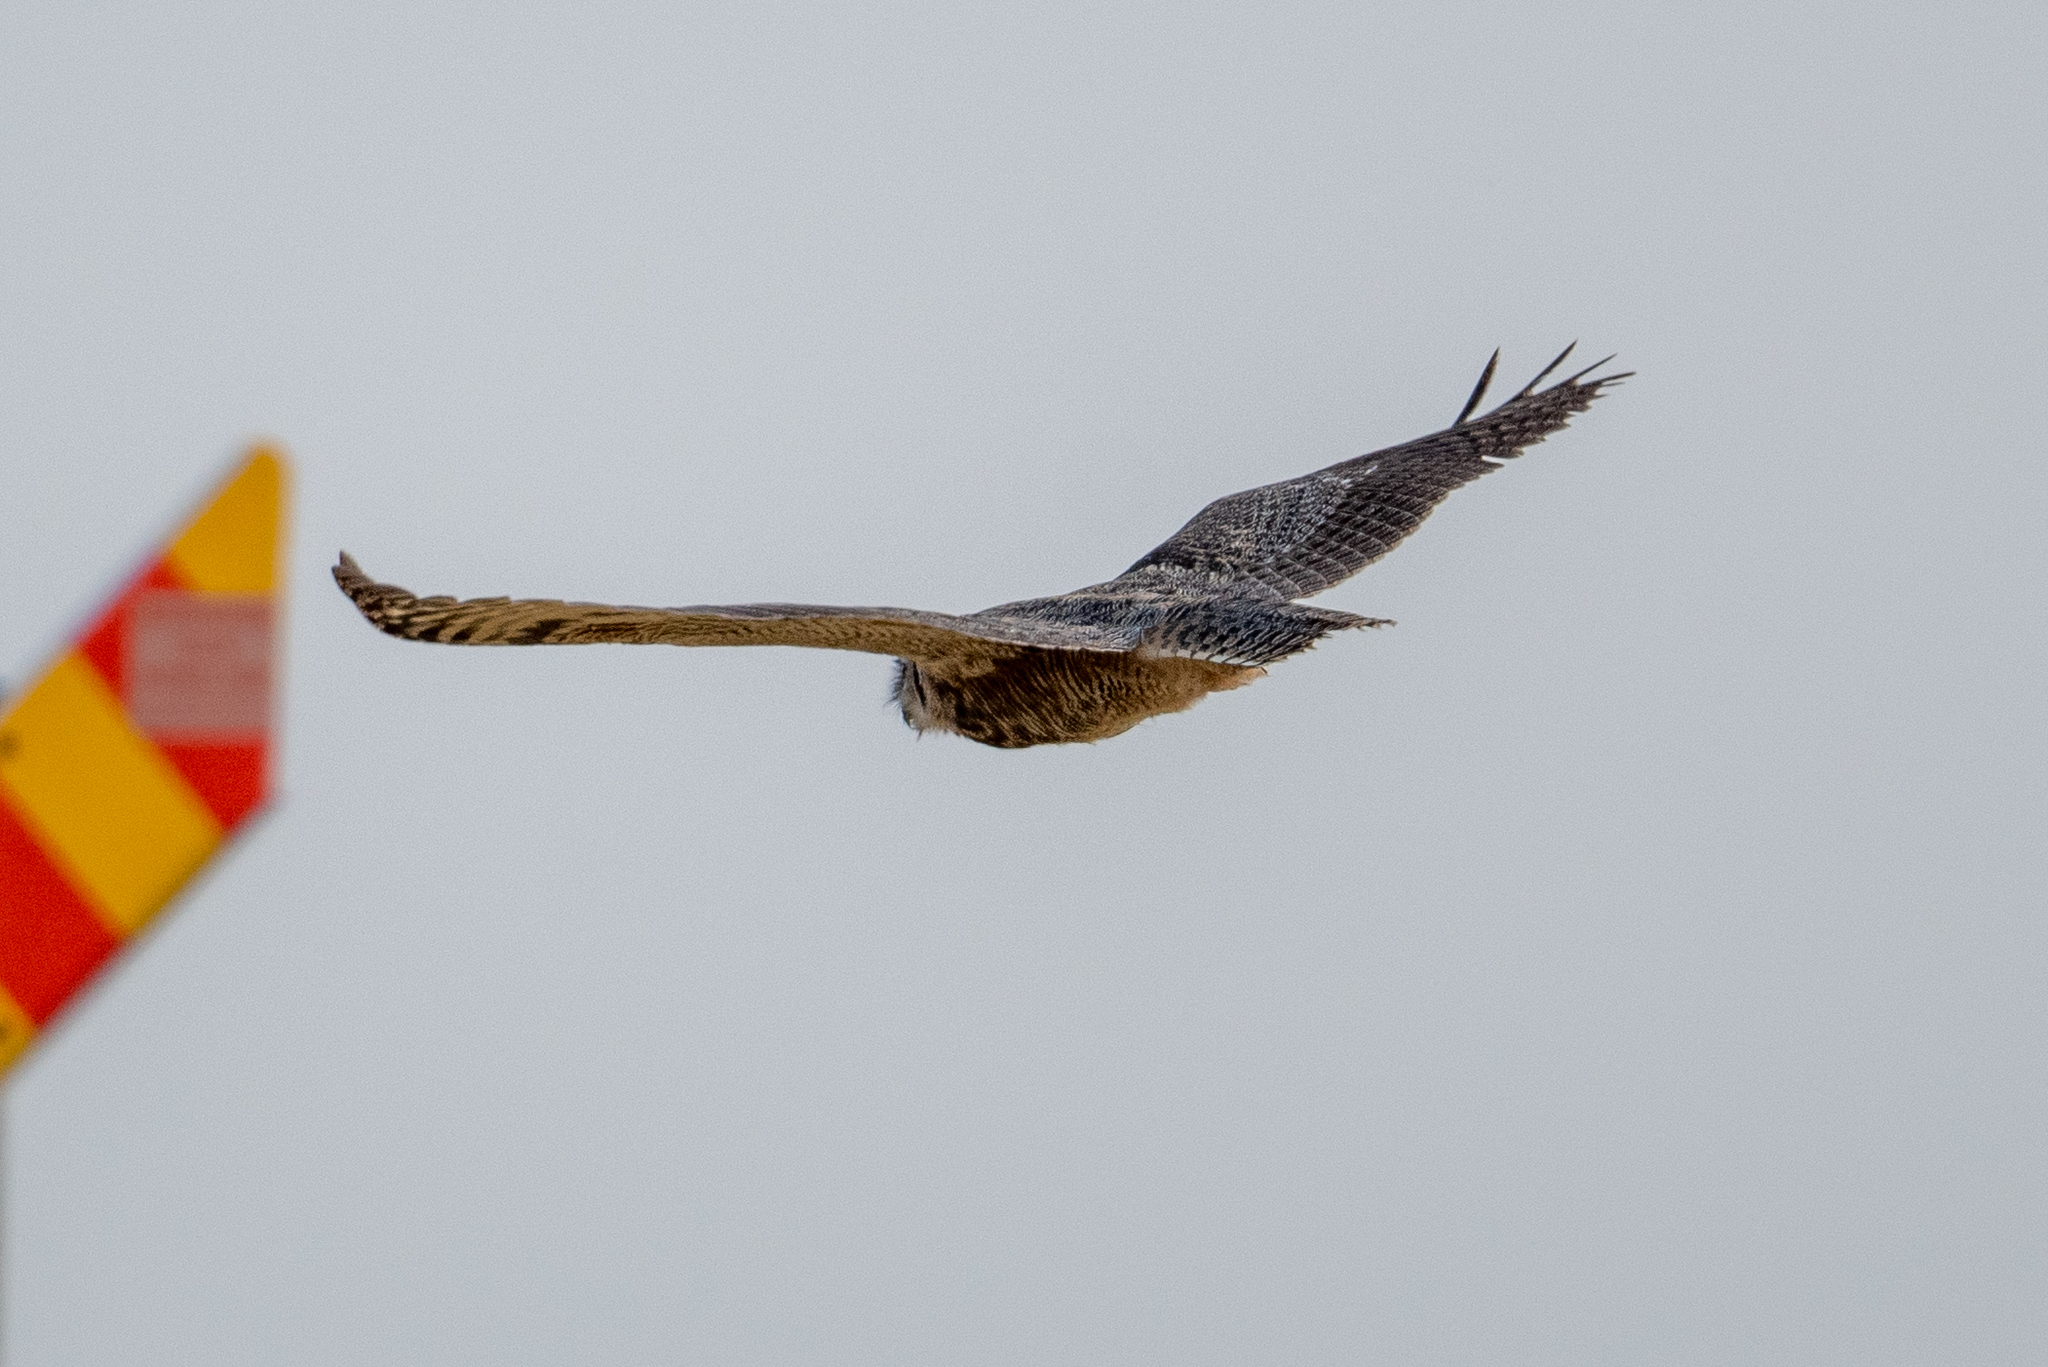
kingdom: Animalia
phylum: Chordata
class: Aves
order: Strigiformes
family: Strigidae
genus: Bubo
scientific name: Bubo virginianus
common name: Great horned owl
